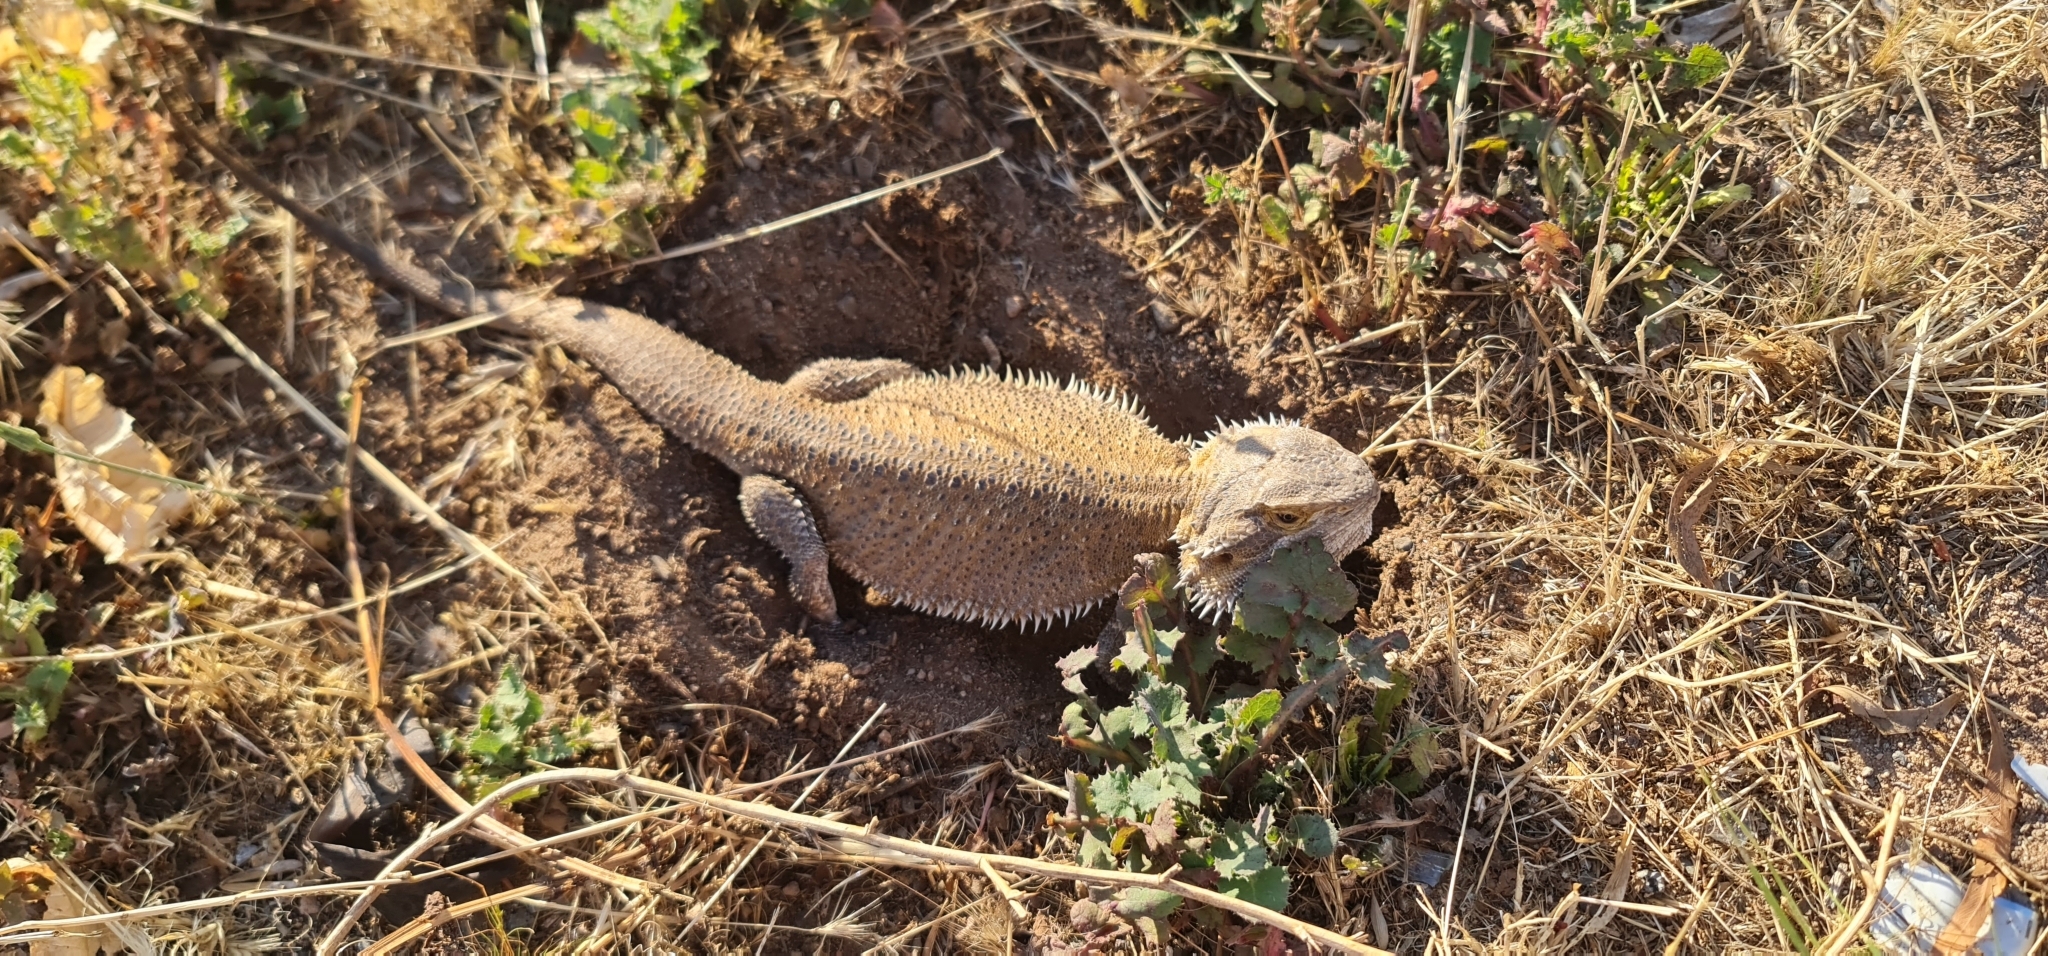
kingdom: Animalia
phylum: Chordata
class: Squamata
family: Agamidae
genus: Pogona
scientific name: Pogona vitticeps
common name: Central bearded dragon
